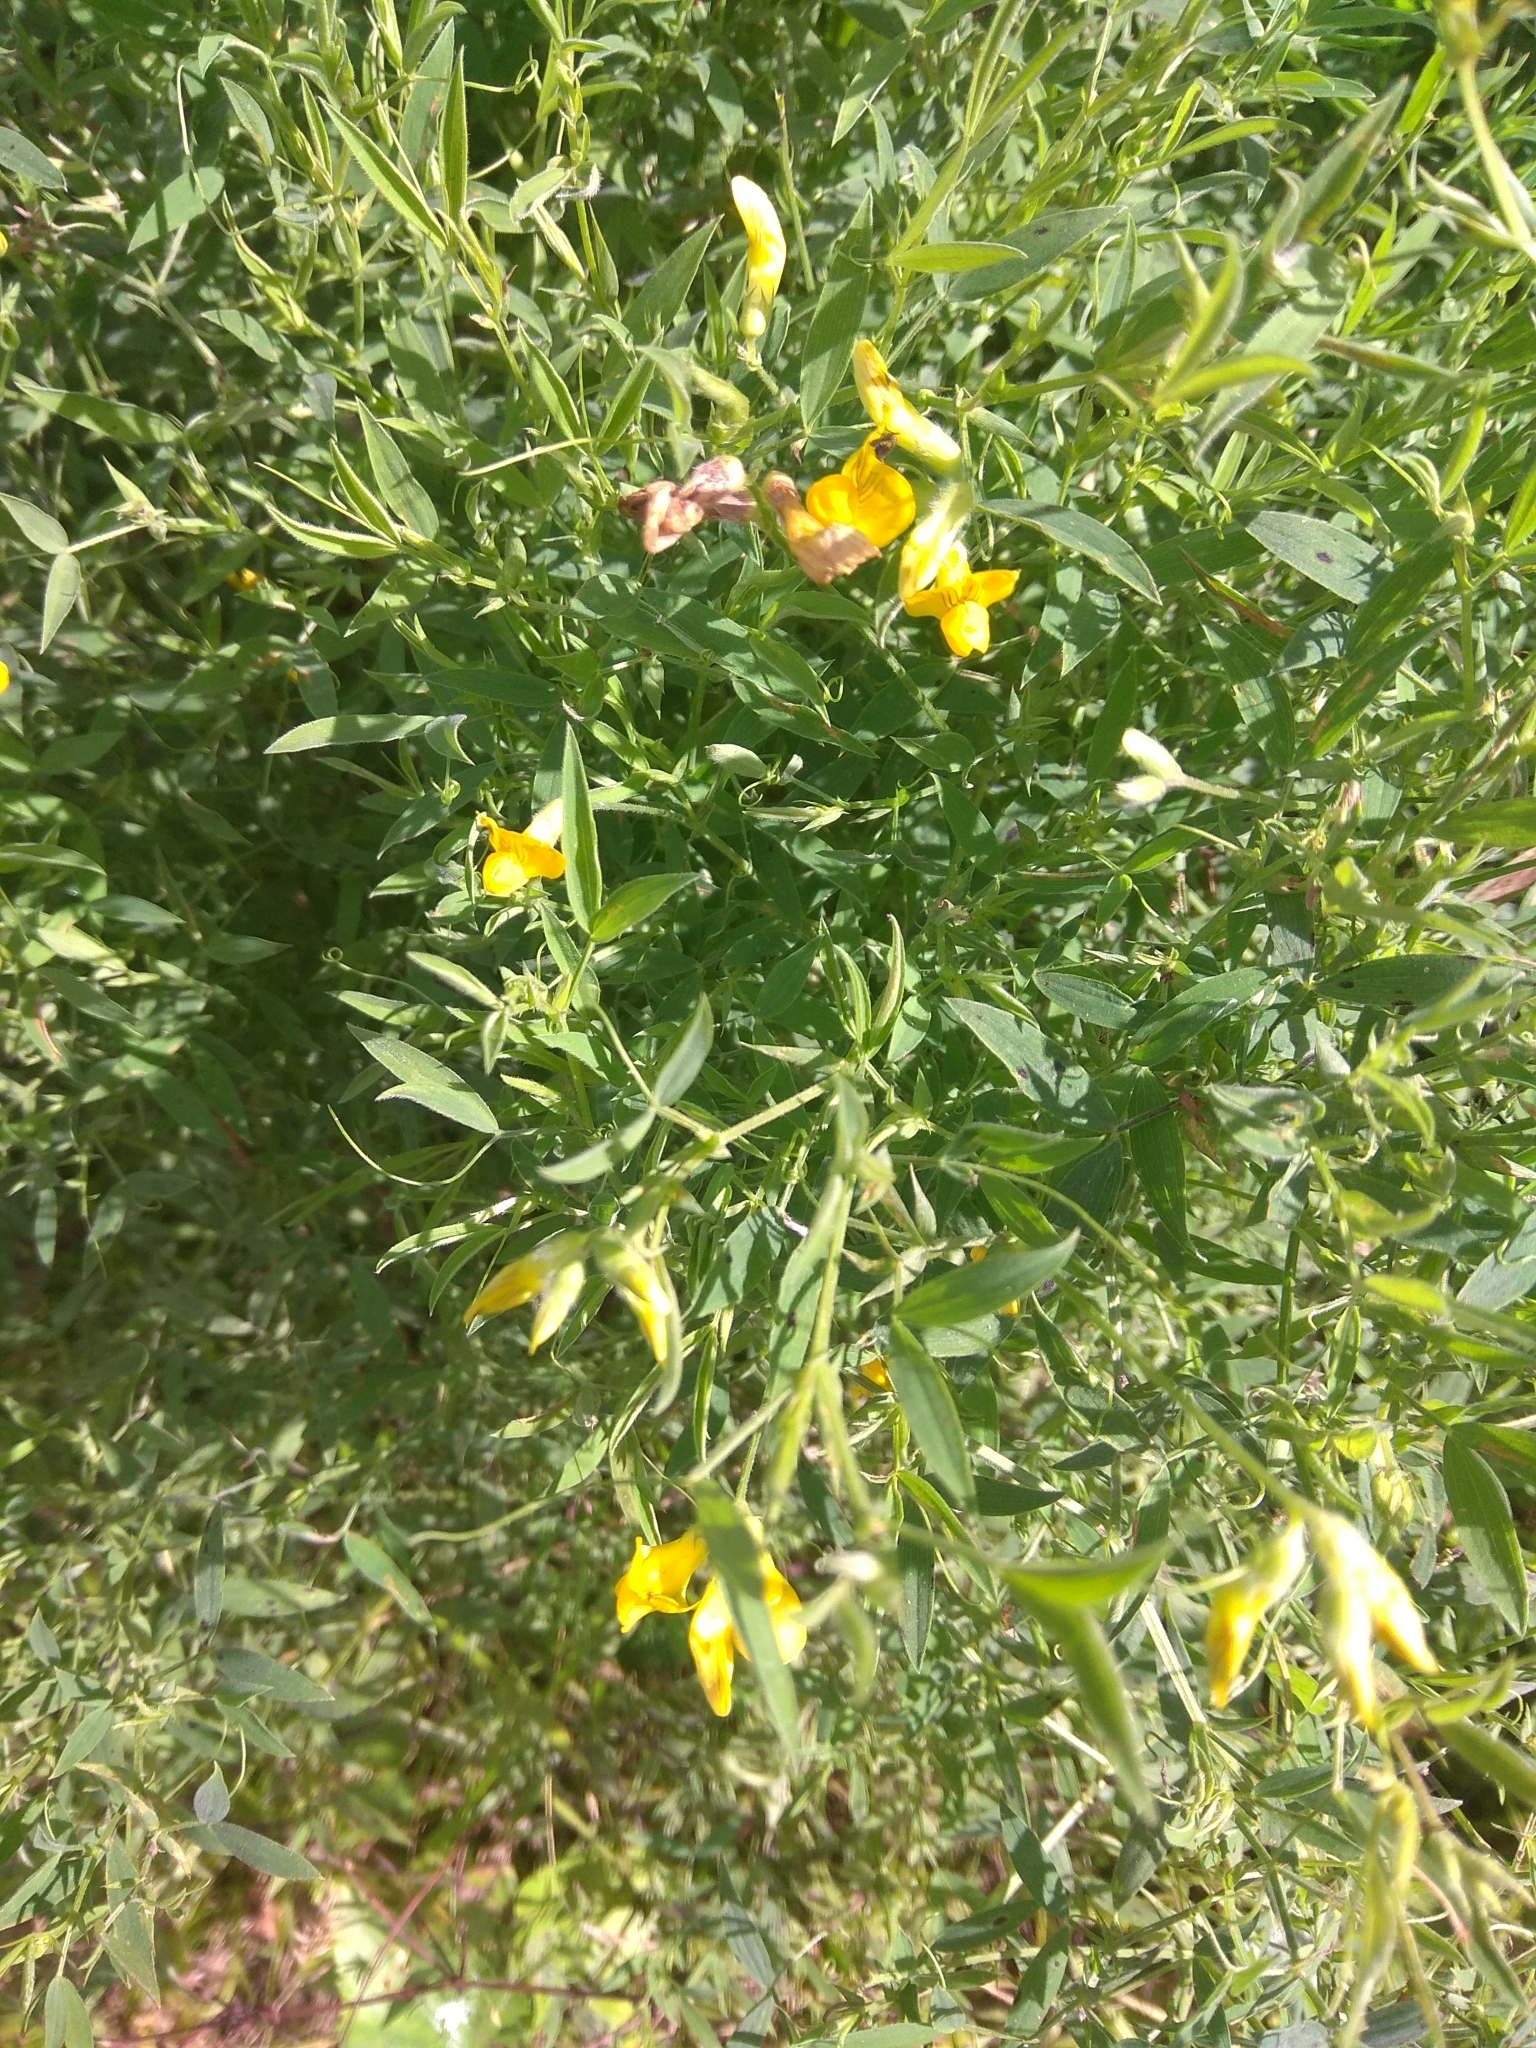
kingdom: Plantae
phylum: Tracheophyta
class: Magnoliopsida
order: Fabales
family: Fabaceae
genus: Lathyrus
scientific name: Lathyrus pratensis
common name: Meadow vetchling
